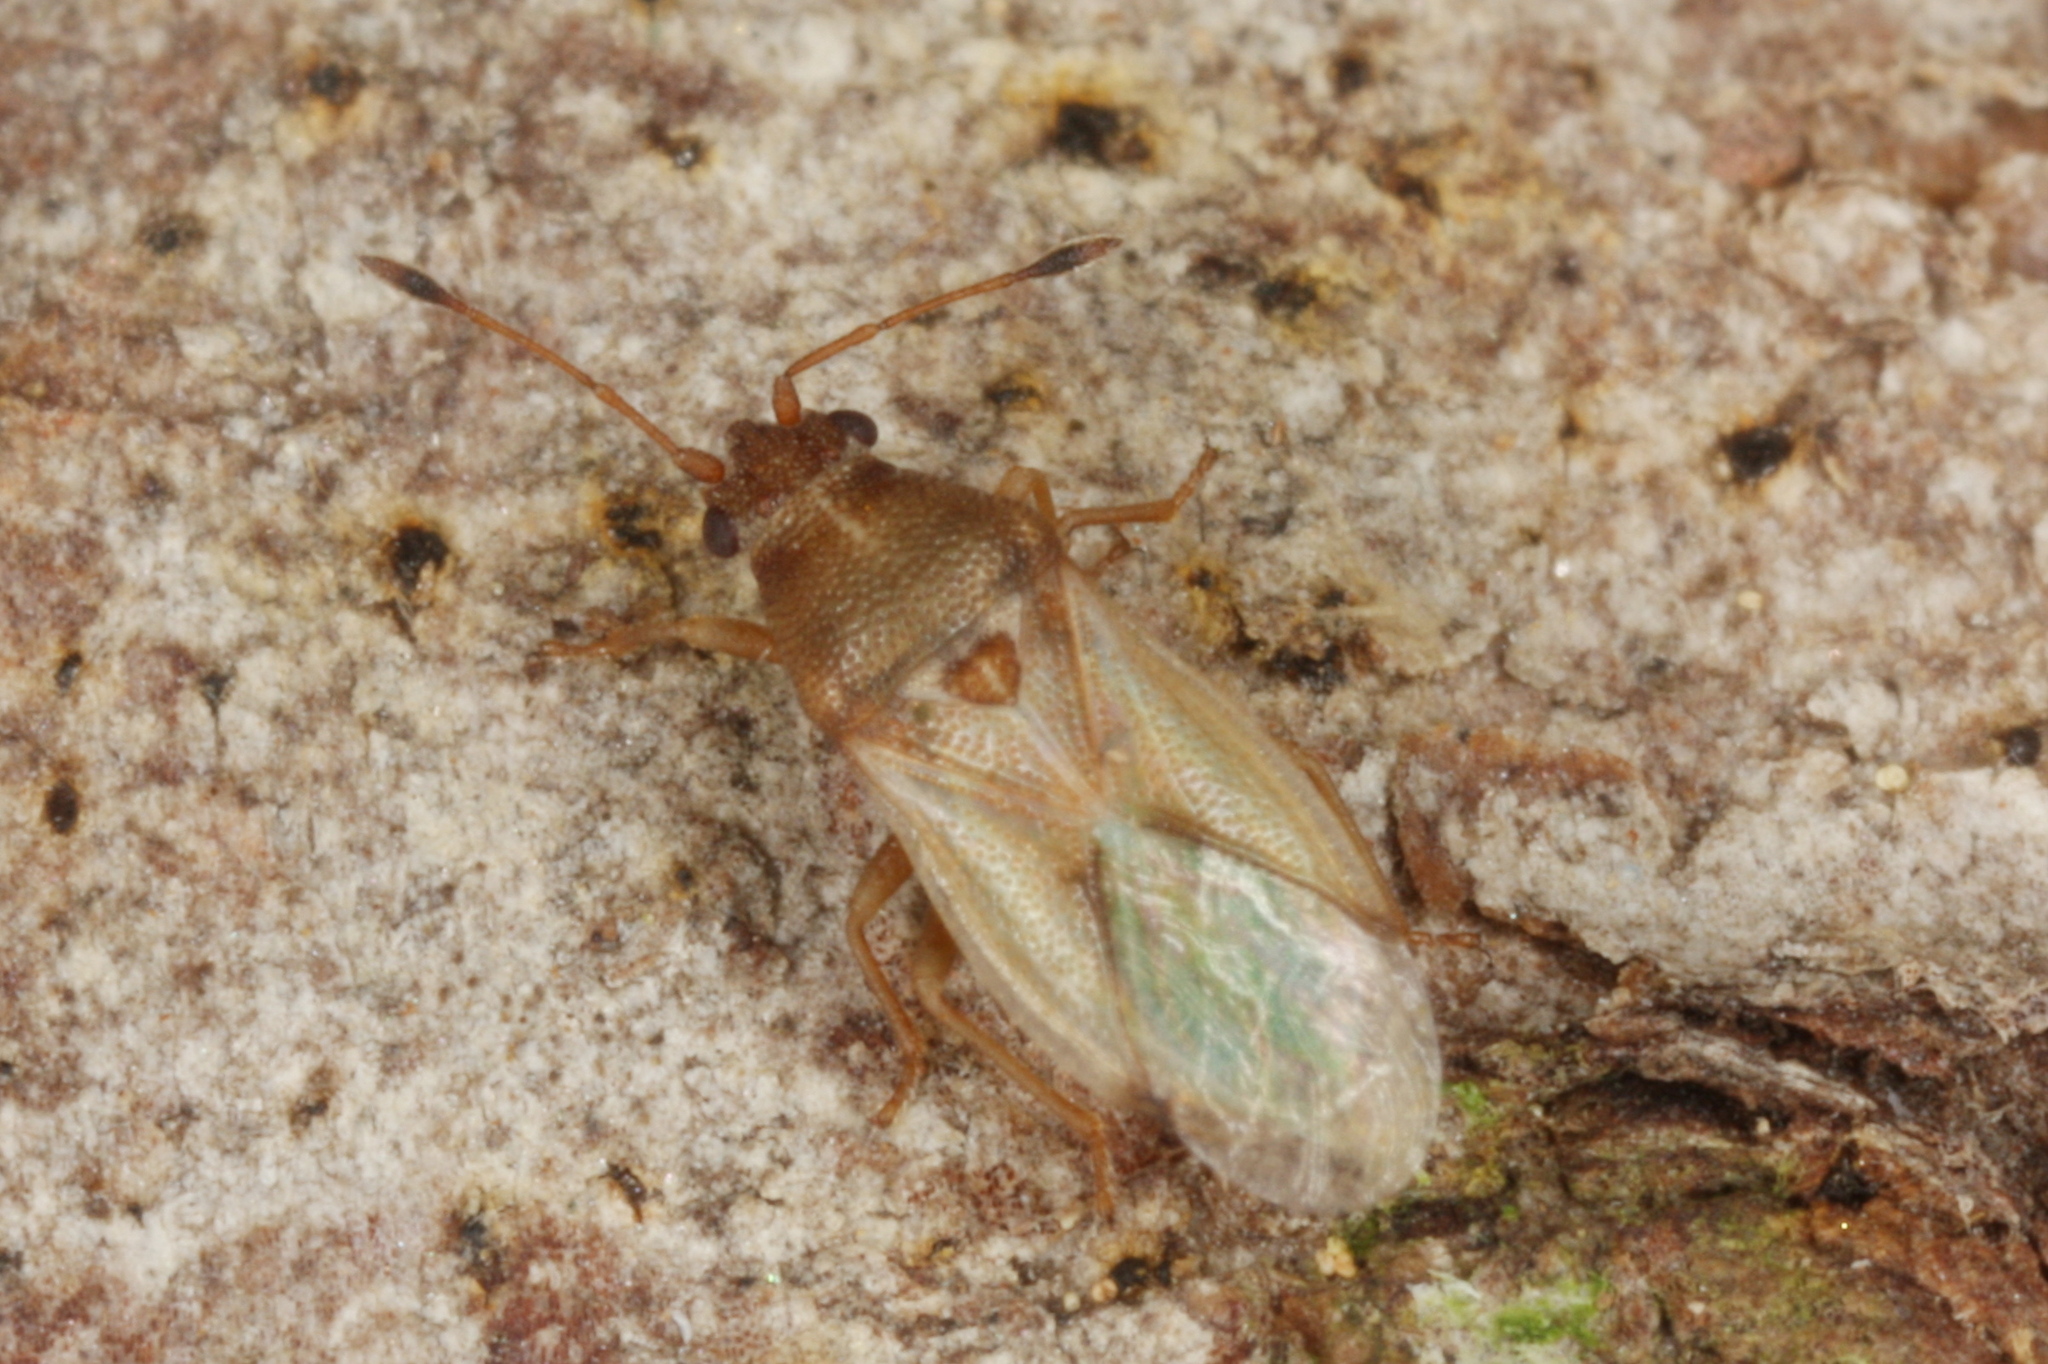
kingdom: Animalia
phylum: Arthropoda
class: Insecta
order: Hemiptera
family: Cymidae
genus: Cymus
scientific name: Cymus claviculus
